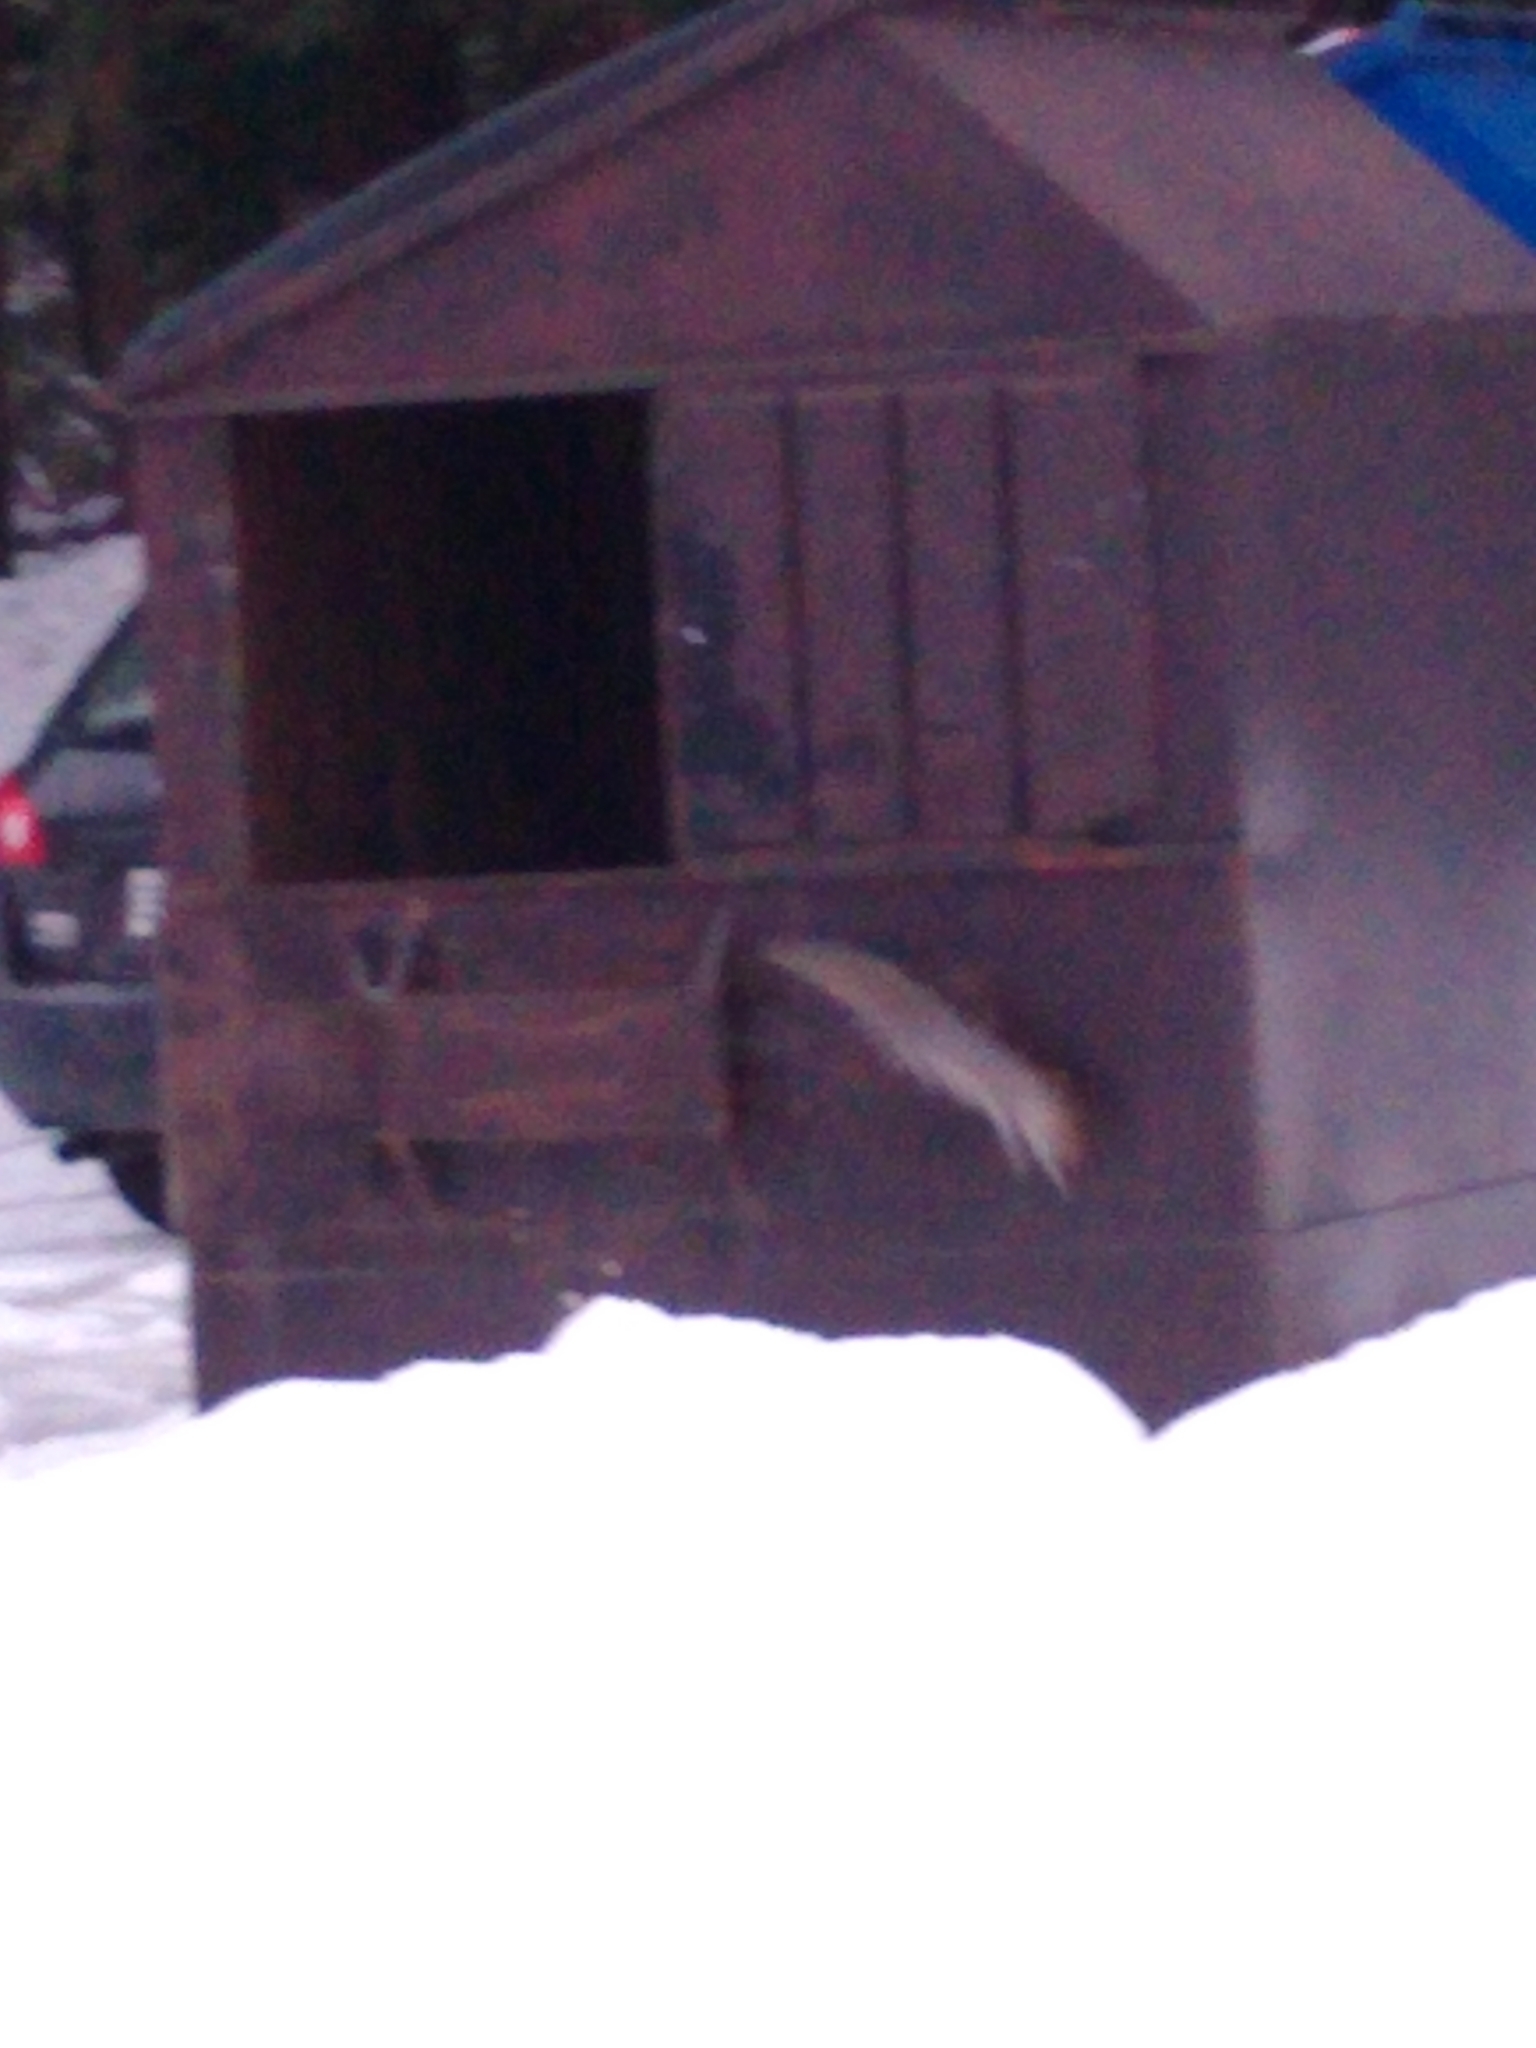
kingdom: Animalia
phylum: Chordata
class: Mammalia
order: Rodentia
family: Sciuridae
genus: Sciurus
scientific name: Sciurus carolinensis
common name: Eastern gray squirrel
